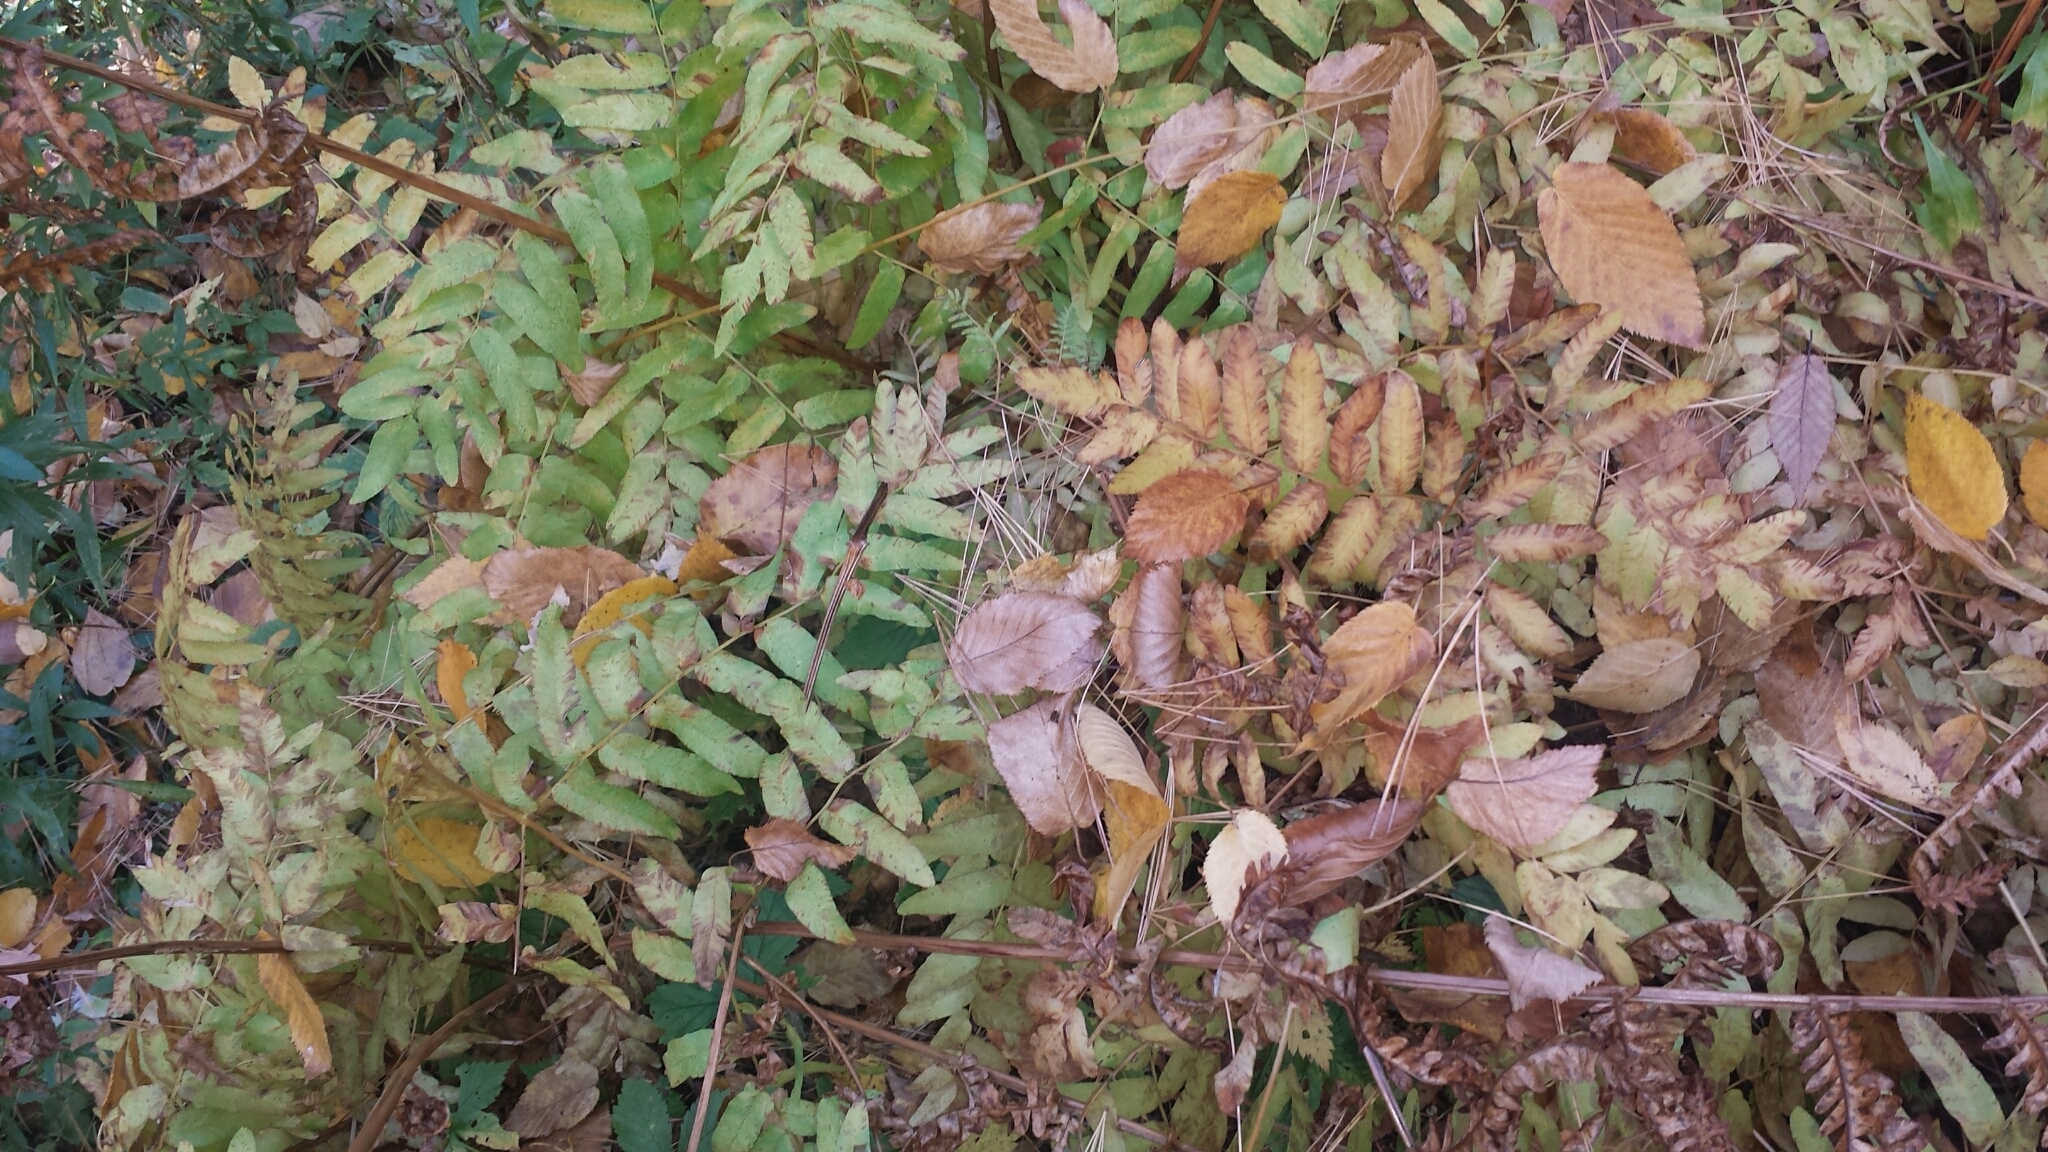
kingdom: Plantae
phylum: Tracheophyta
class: Polypodiopsida
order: Osmundales
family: Osmundaceae
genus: Osmunda
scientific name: Osmunda spectabilis
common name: American royal fern
